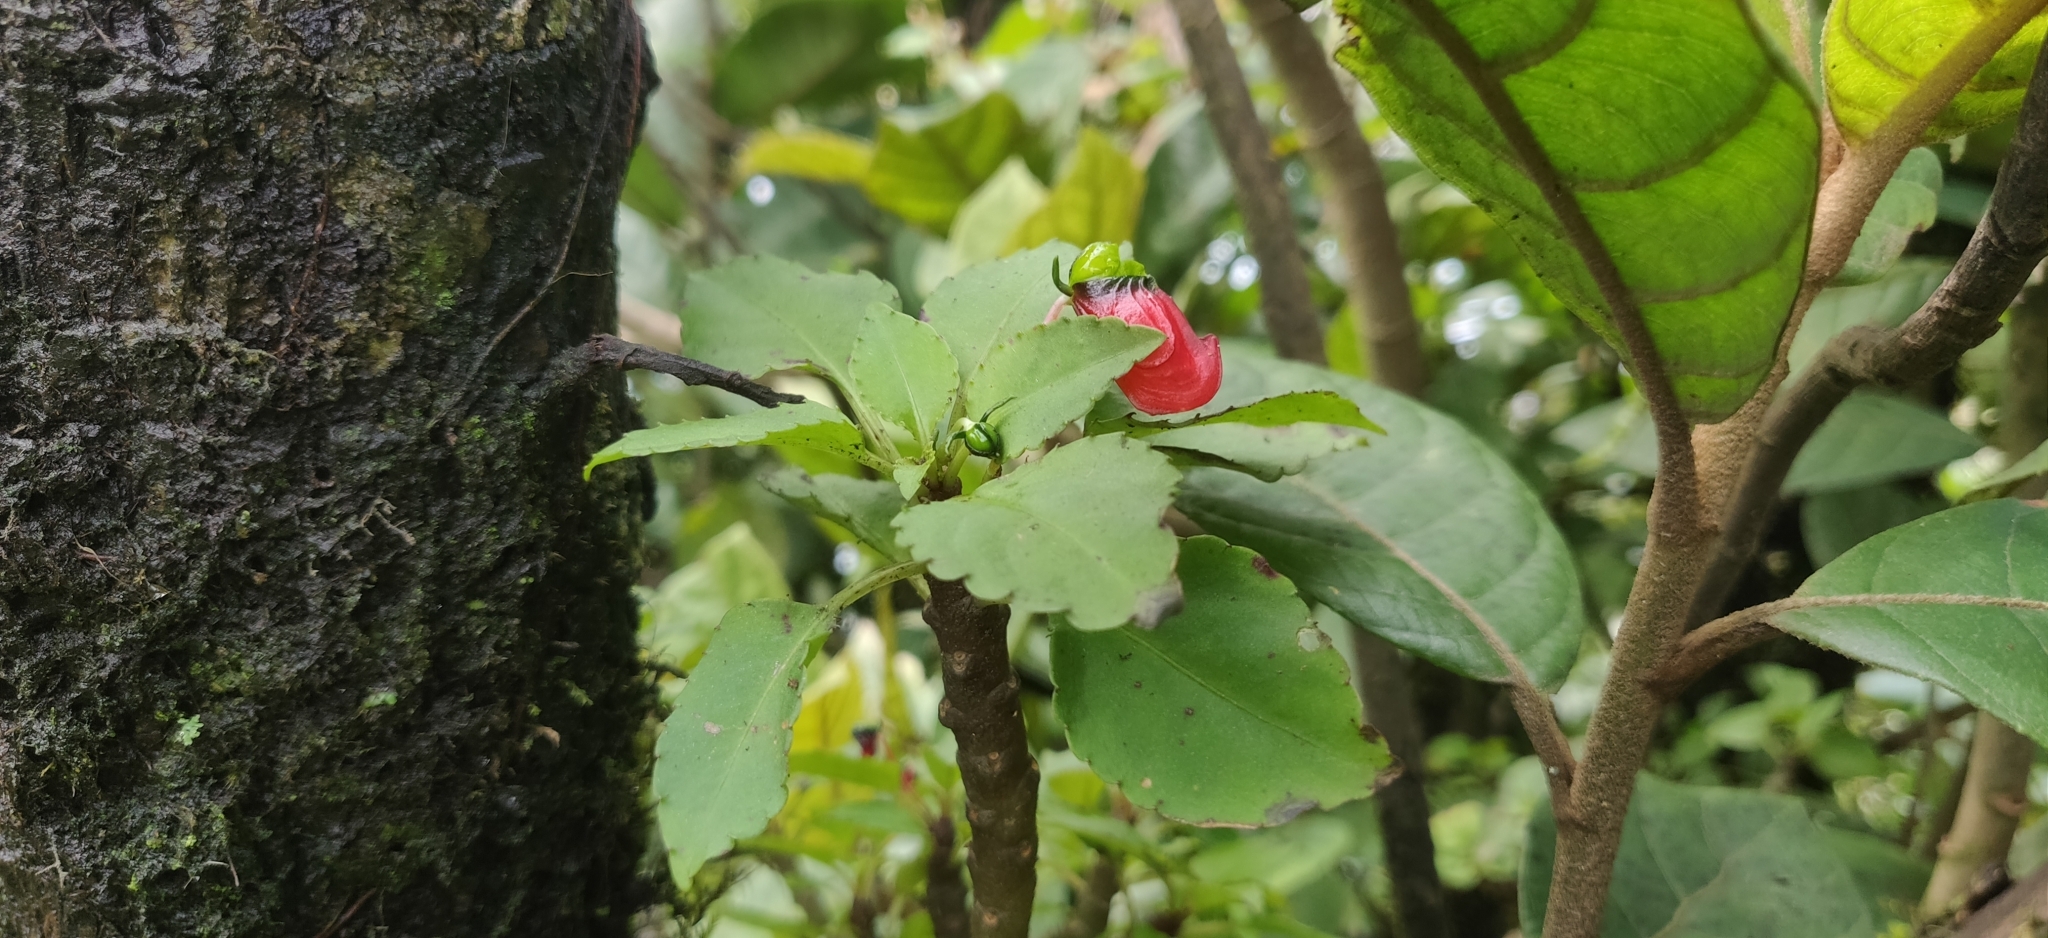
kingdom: Plantae
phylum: Tracheophyta
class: Magnoliopsida
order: Ericales
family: Balsaminaceae
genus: Impatiens
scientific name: Impatiens parasitica
